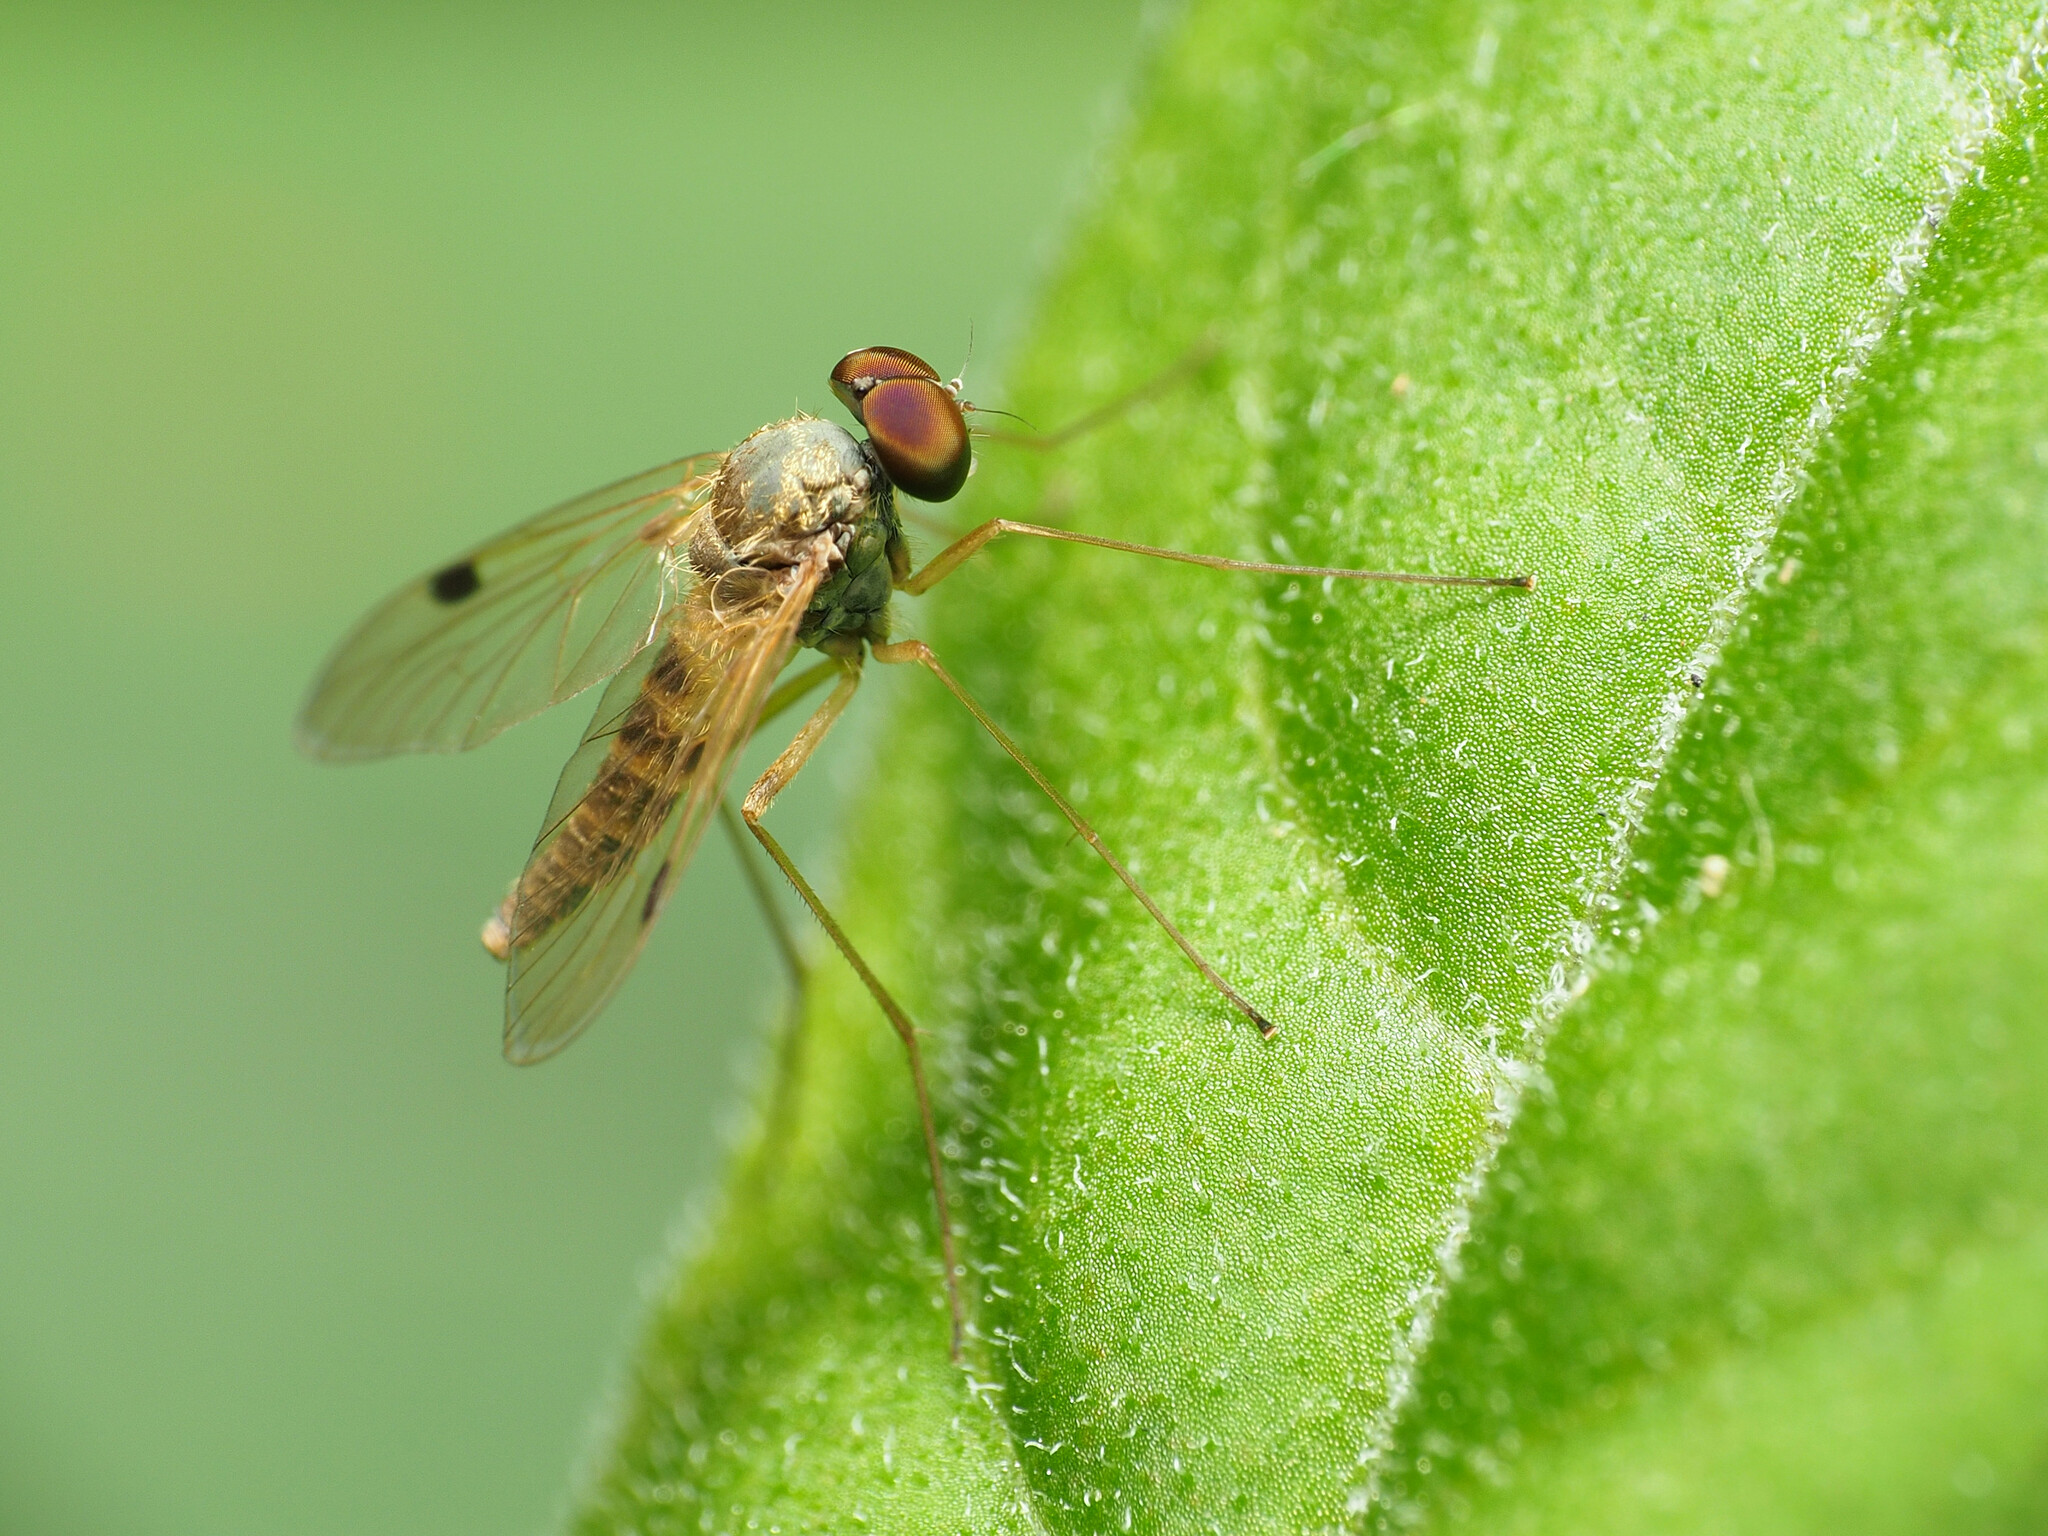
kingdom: Animalia
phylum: Arthropoda
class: Insecta
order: Diptera
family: Rhagionidae
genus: Chrysopilus
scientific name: Chrysopilus modestus
